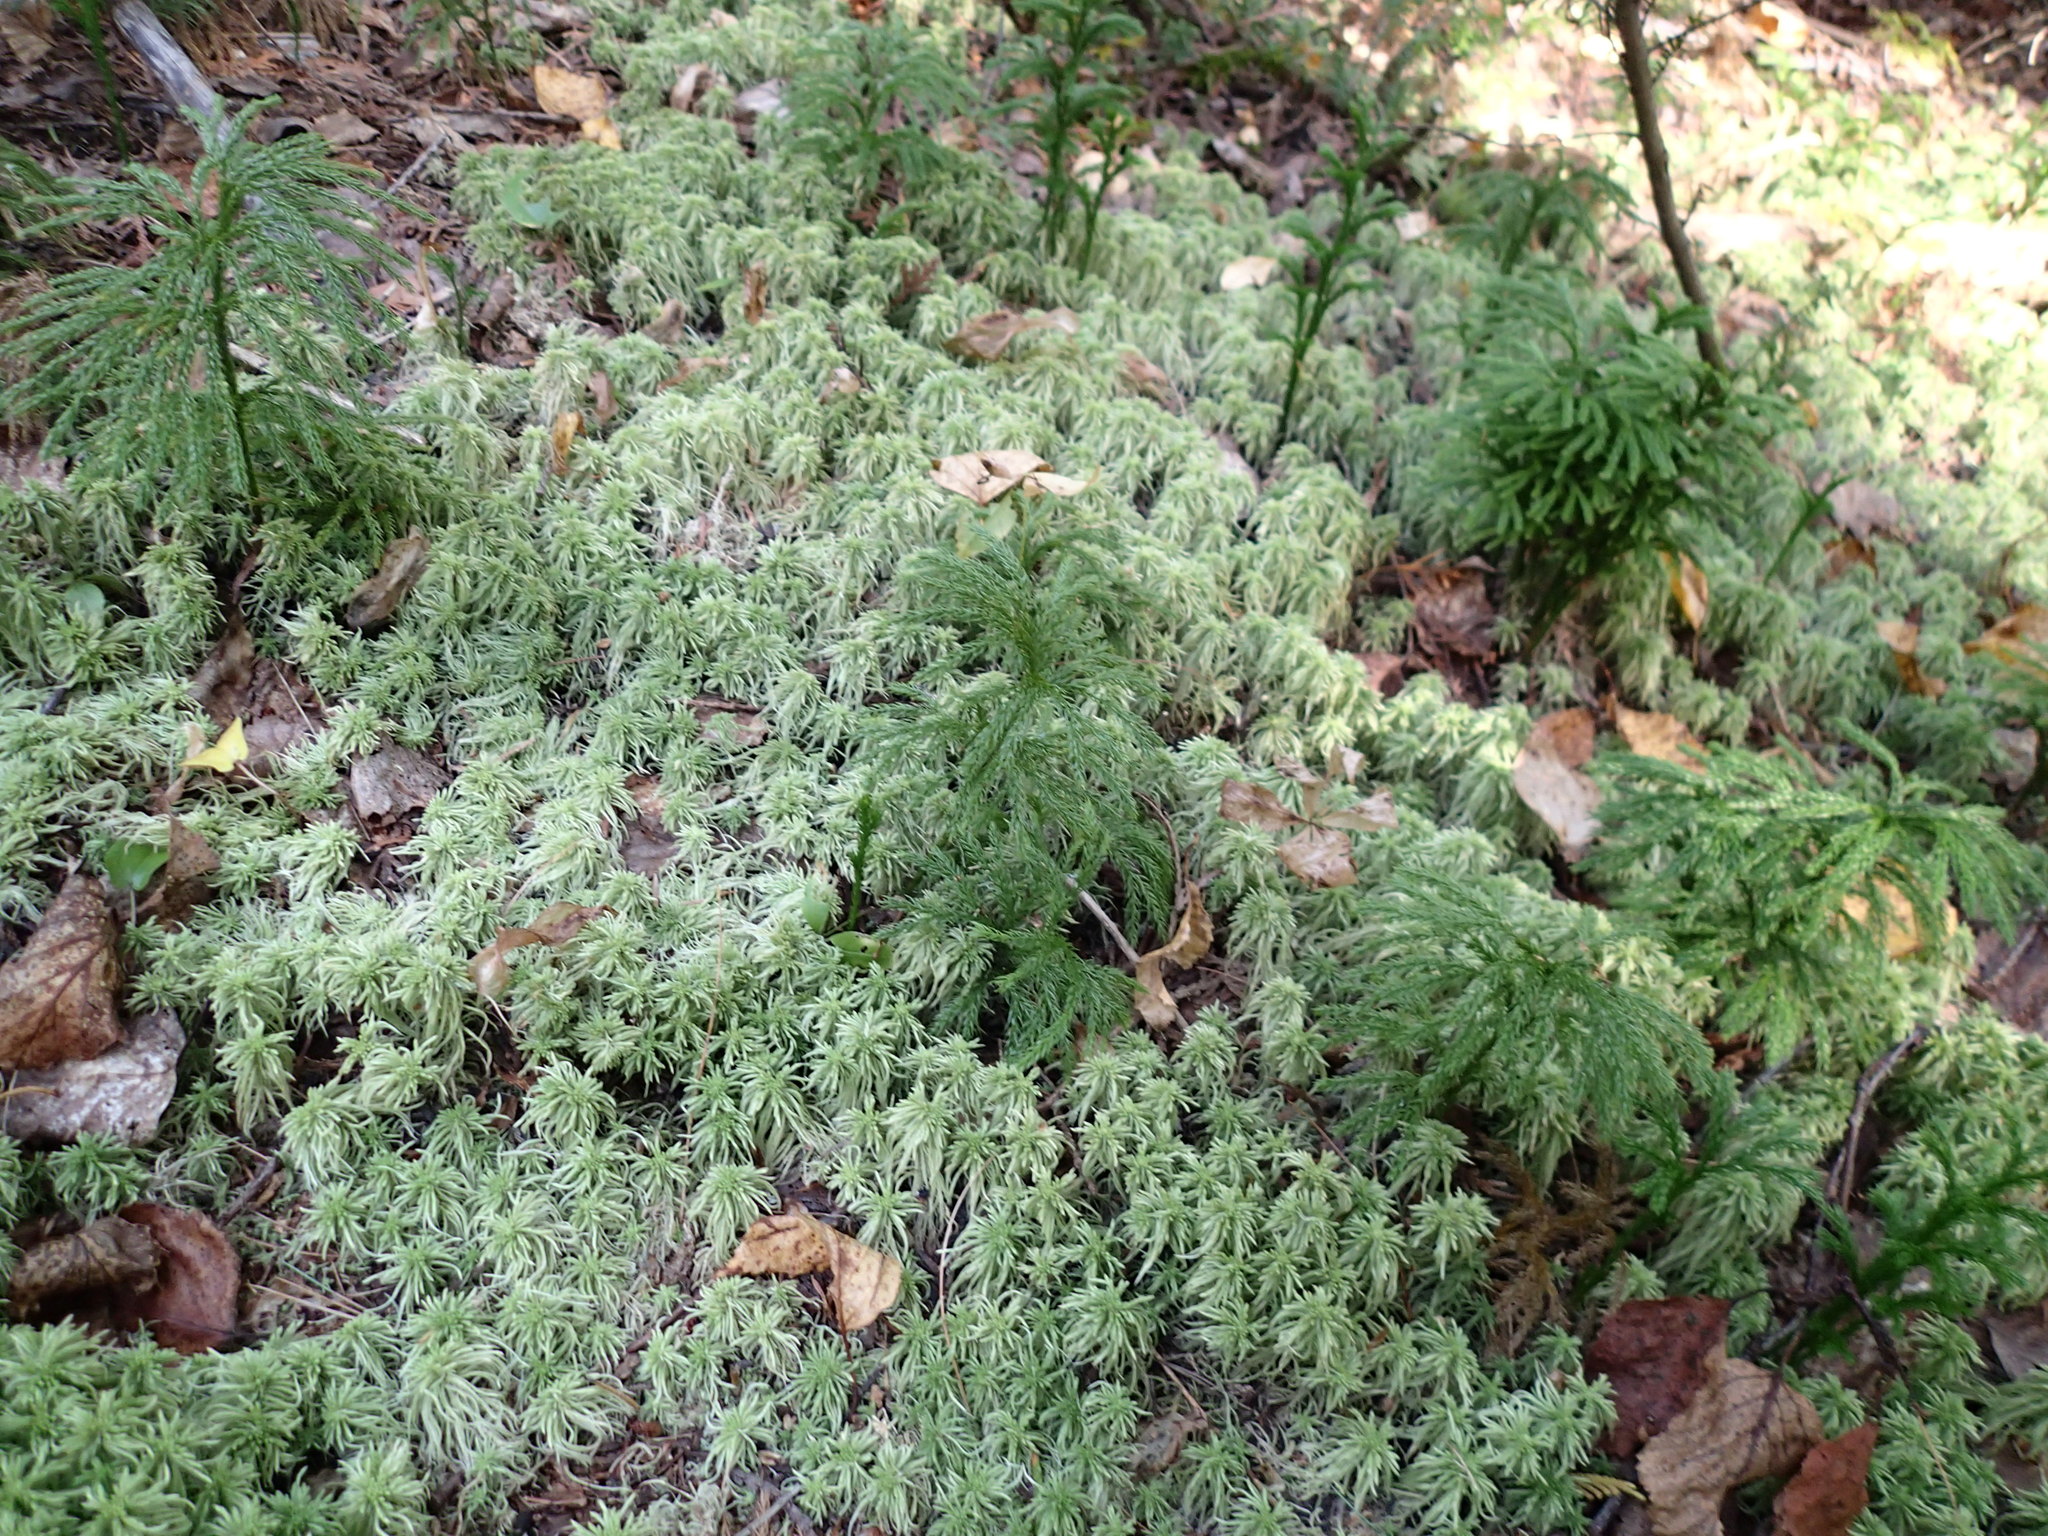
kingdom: Plantae
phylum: Tracheophyta
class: Lycopodiopsida
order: Lycopodiales
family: Lycopodiaceae
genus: Dendrolycopodium
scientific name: Dendrolycopodium dendroideum
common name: Northern tree-clubmoss
